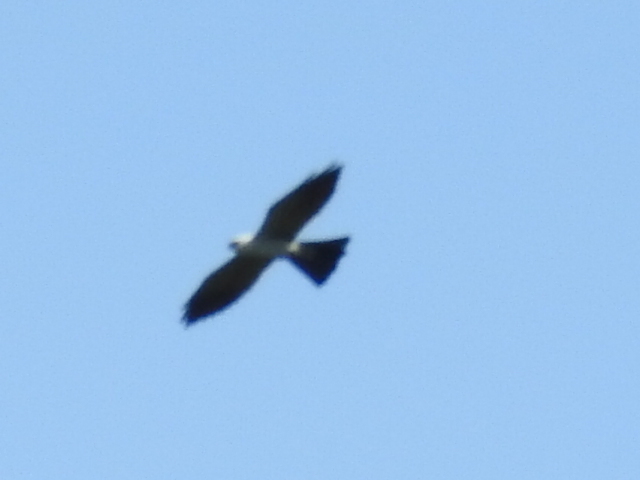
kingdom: Animalia
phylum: Chordata
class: Aves
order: Accipitriformes
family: Accipitridae
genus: Ictinia
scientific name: Ictinia mississippiensis
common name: Mississippi kite
